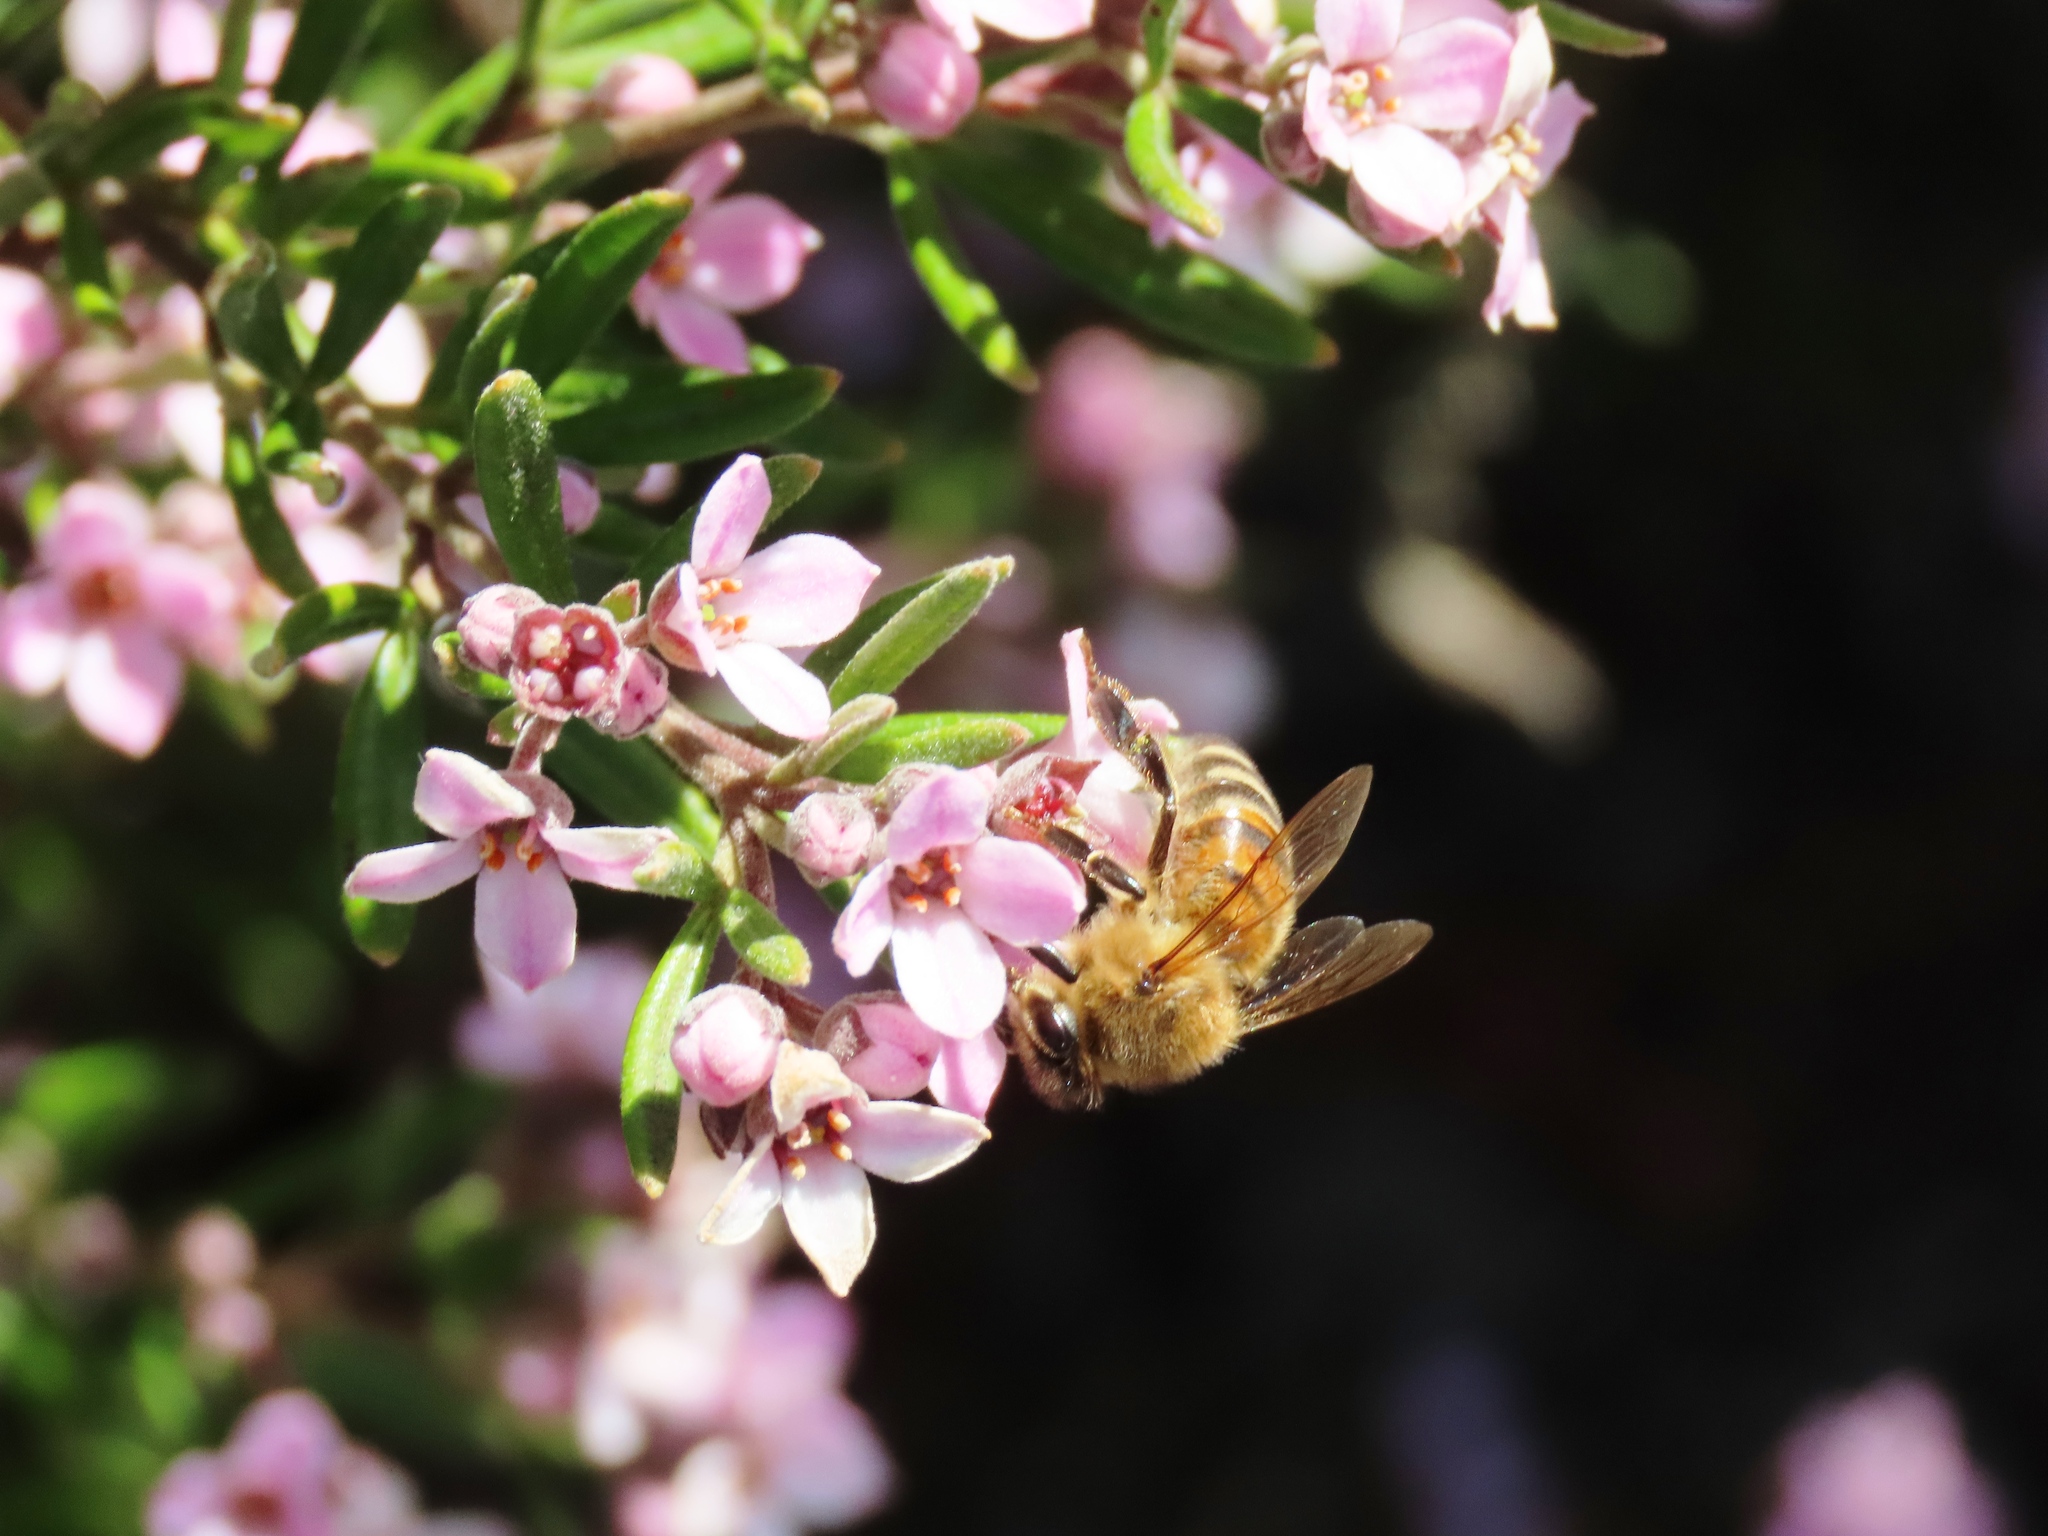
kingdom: Animalia
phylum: Arthropoda
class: Insecta
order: Hymenoptera
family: Apidae
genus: Apis
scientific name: Apis mellifera
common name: Honey bee
